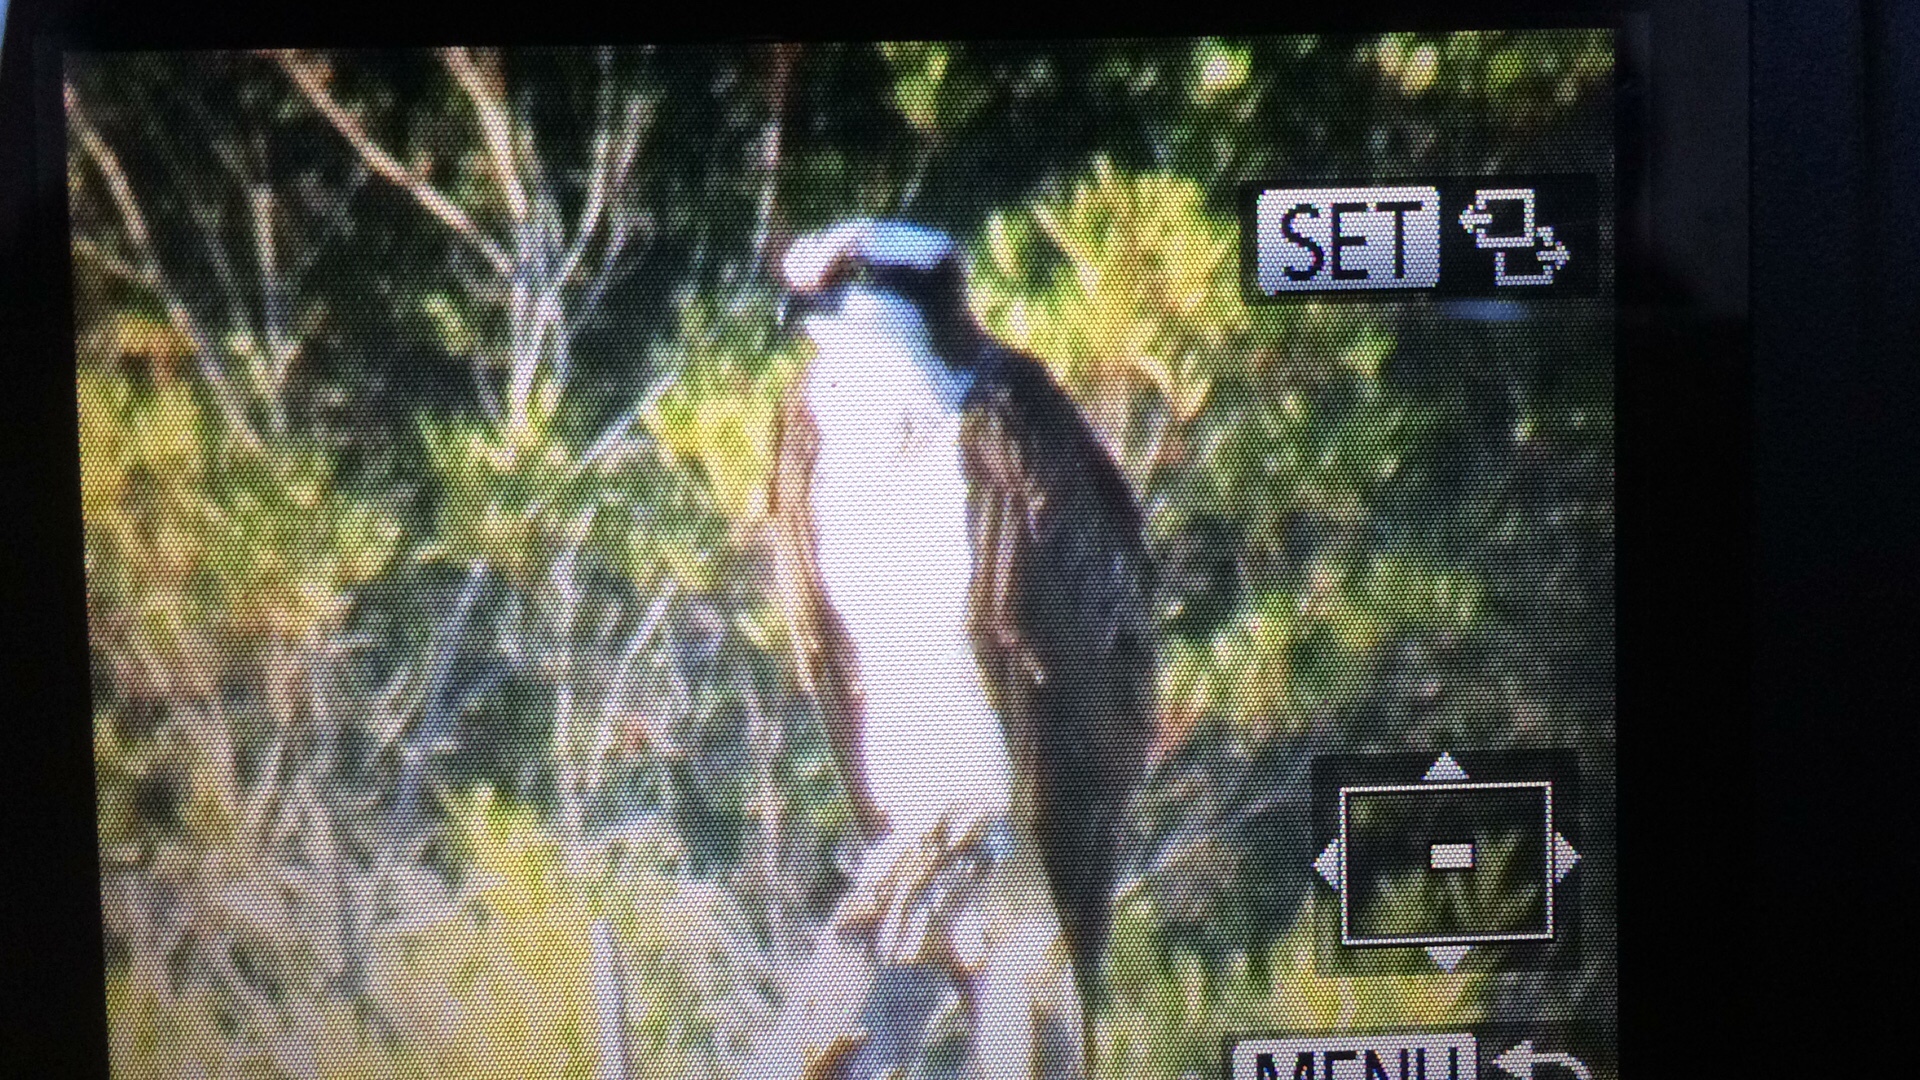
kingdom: Animalia
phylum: Chordata
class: Aves
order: Accipitriformes
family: Pandionidae
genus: Pandion
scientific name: Pandion haliaetus
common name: Osprey
